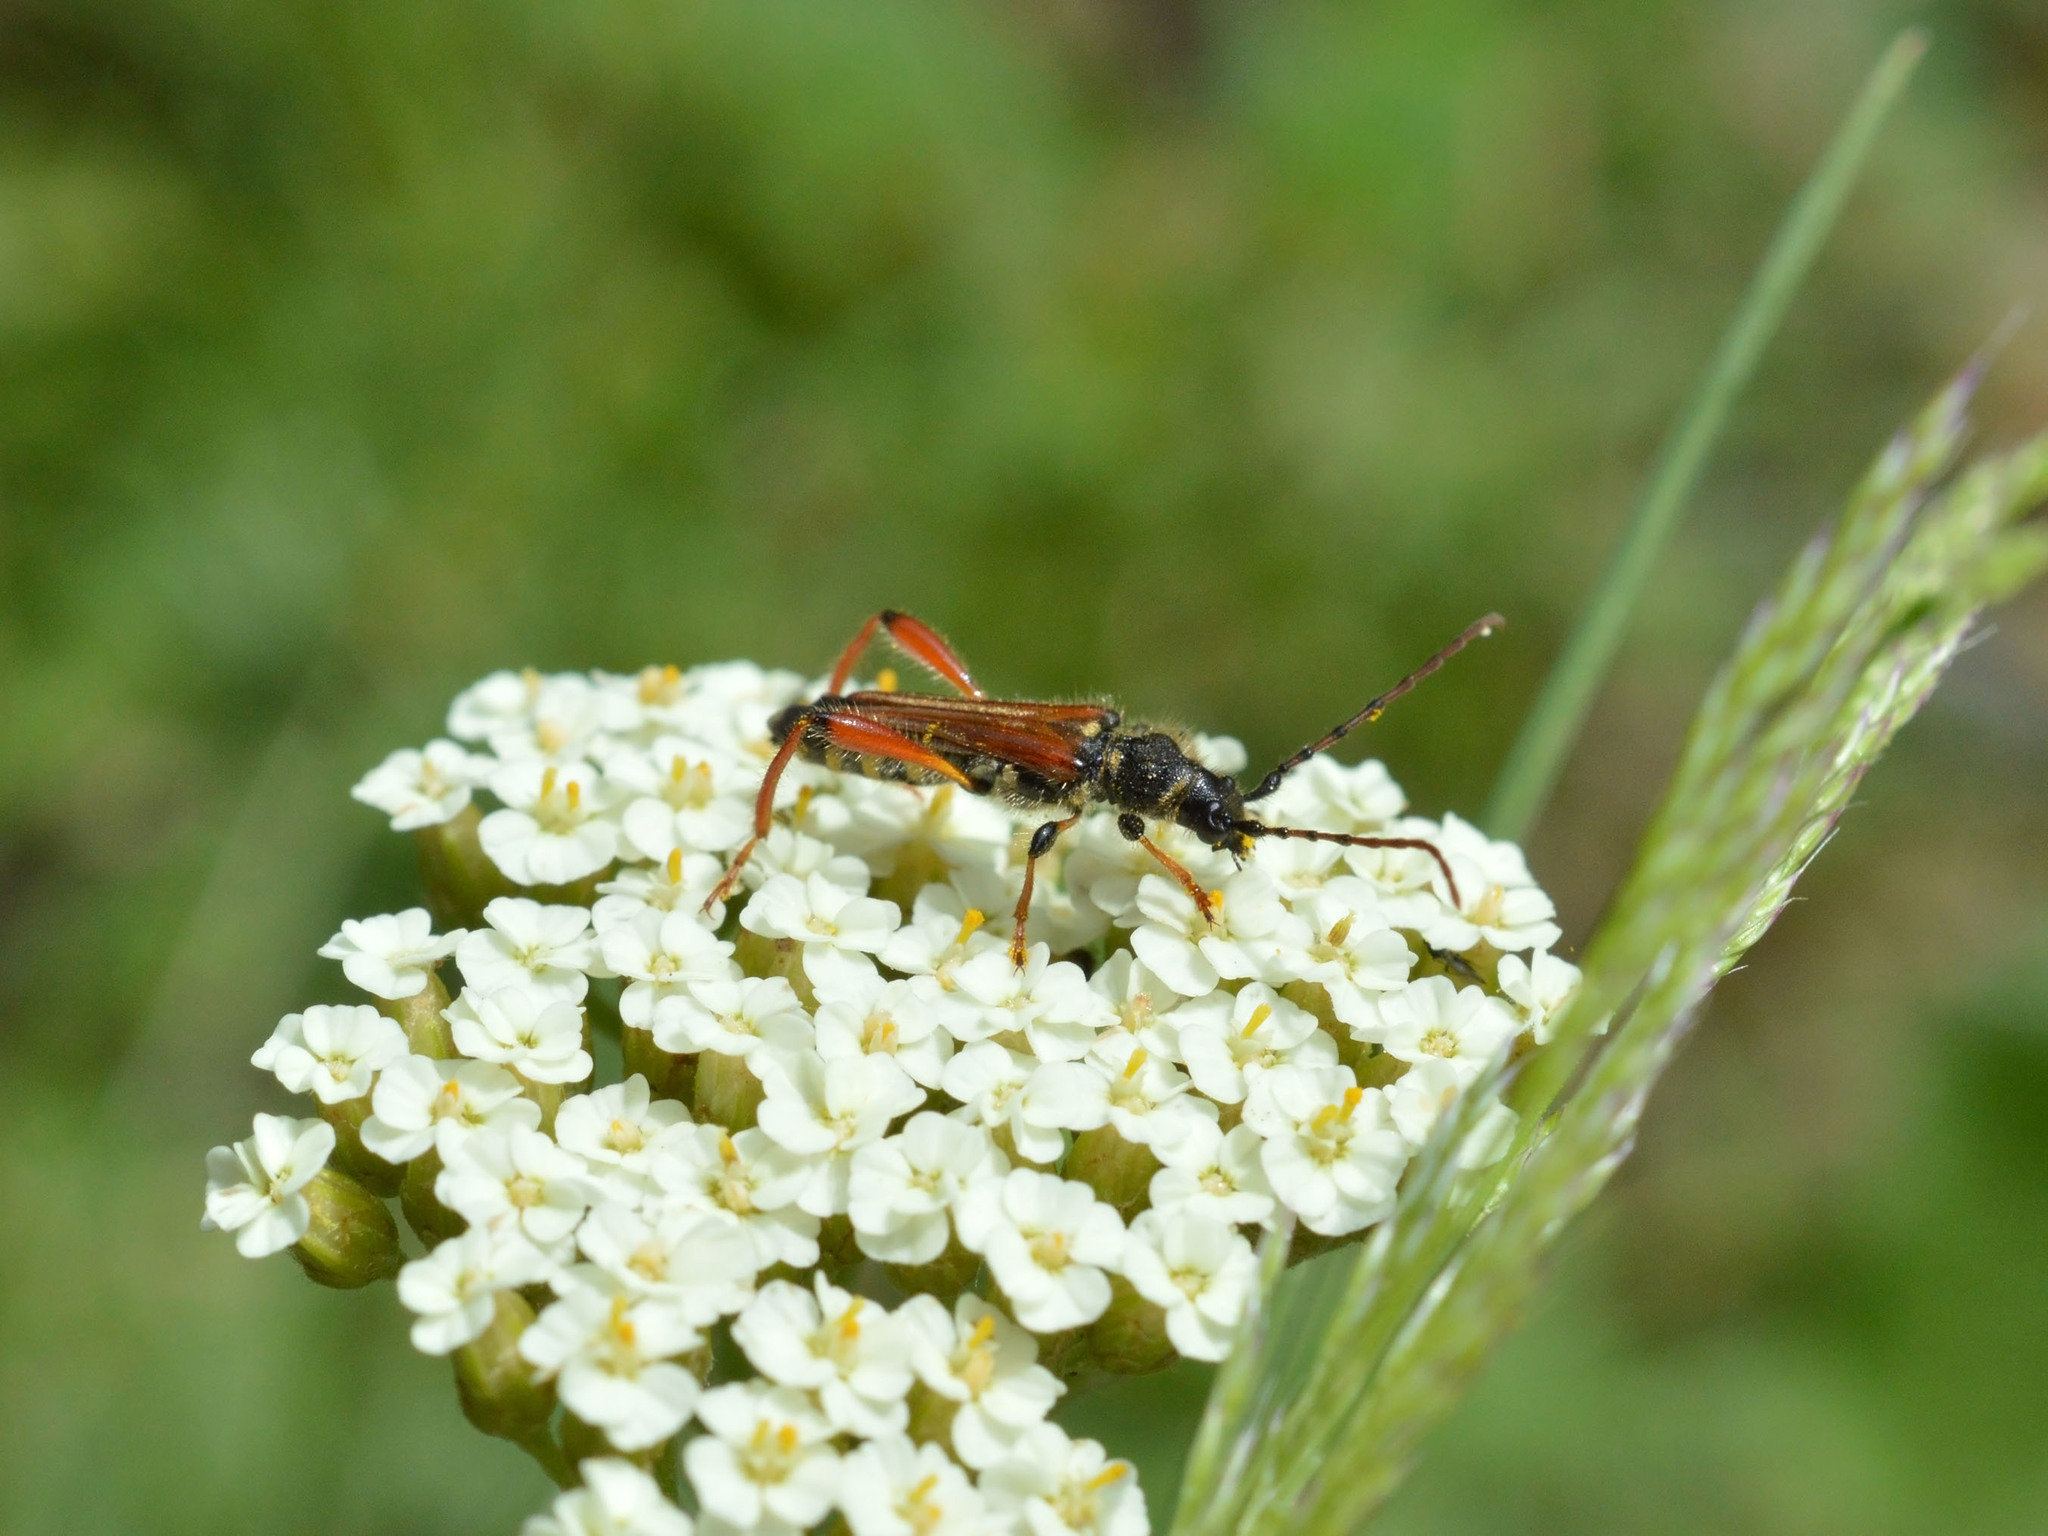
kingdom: Animalia
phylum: Arthropoda
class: Insecta
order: Coleoptera
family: Cerambycidae
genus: Stenopterus
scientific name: Stenopterus rufus
